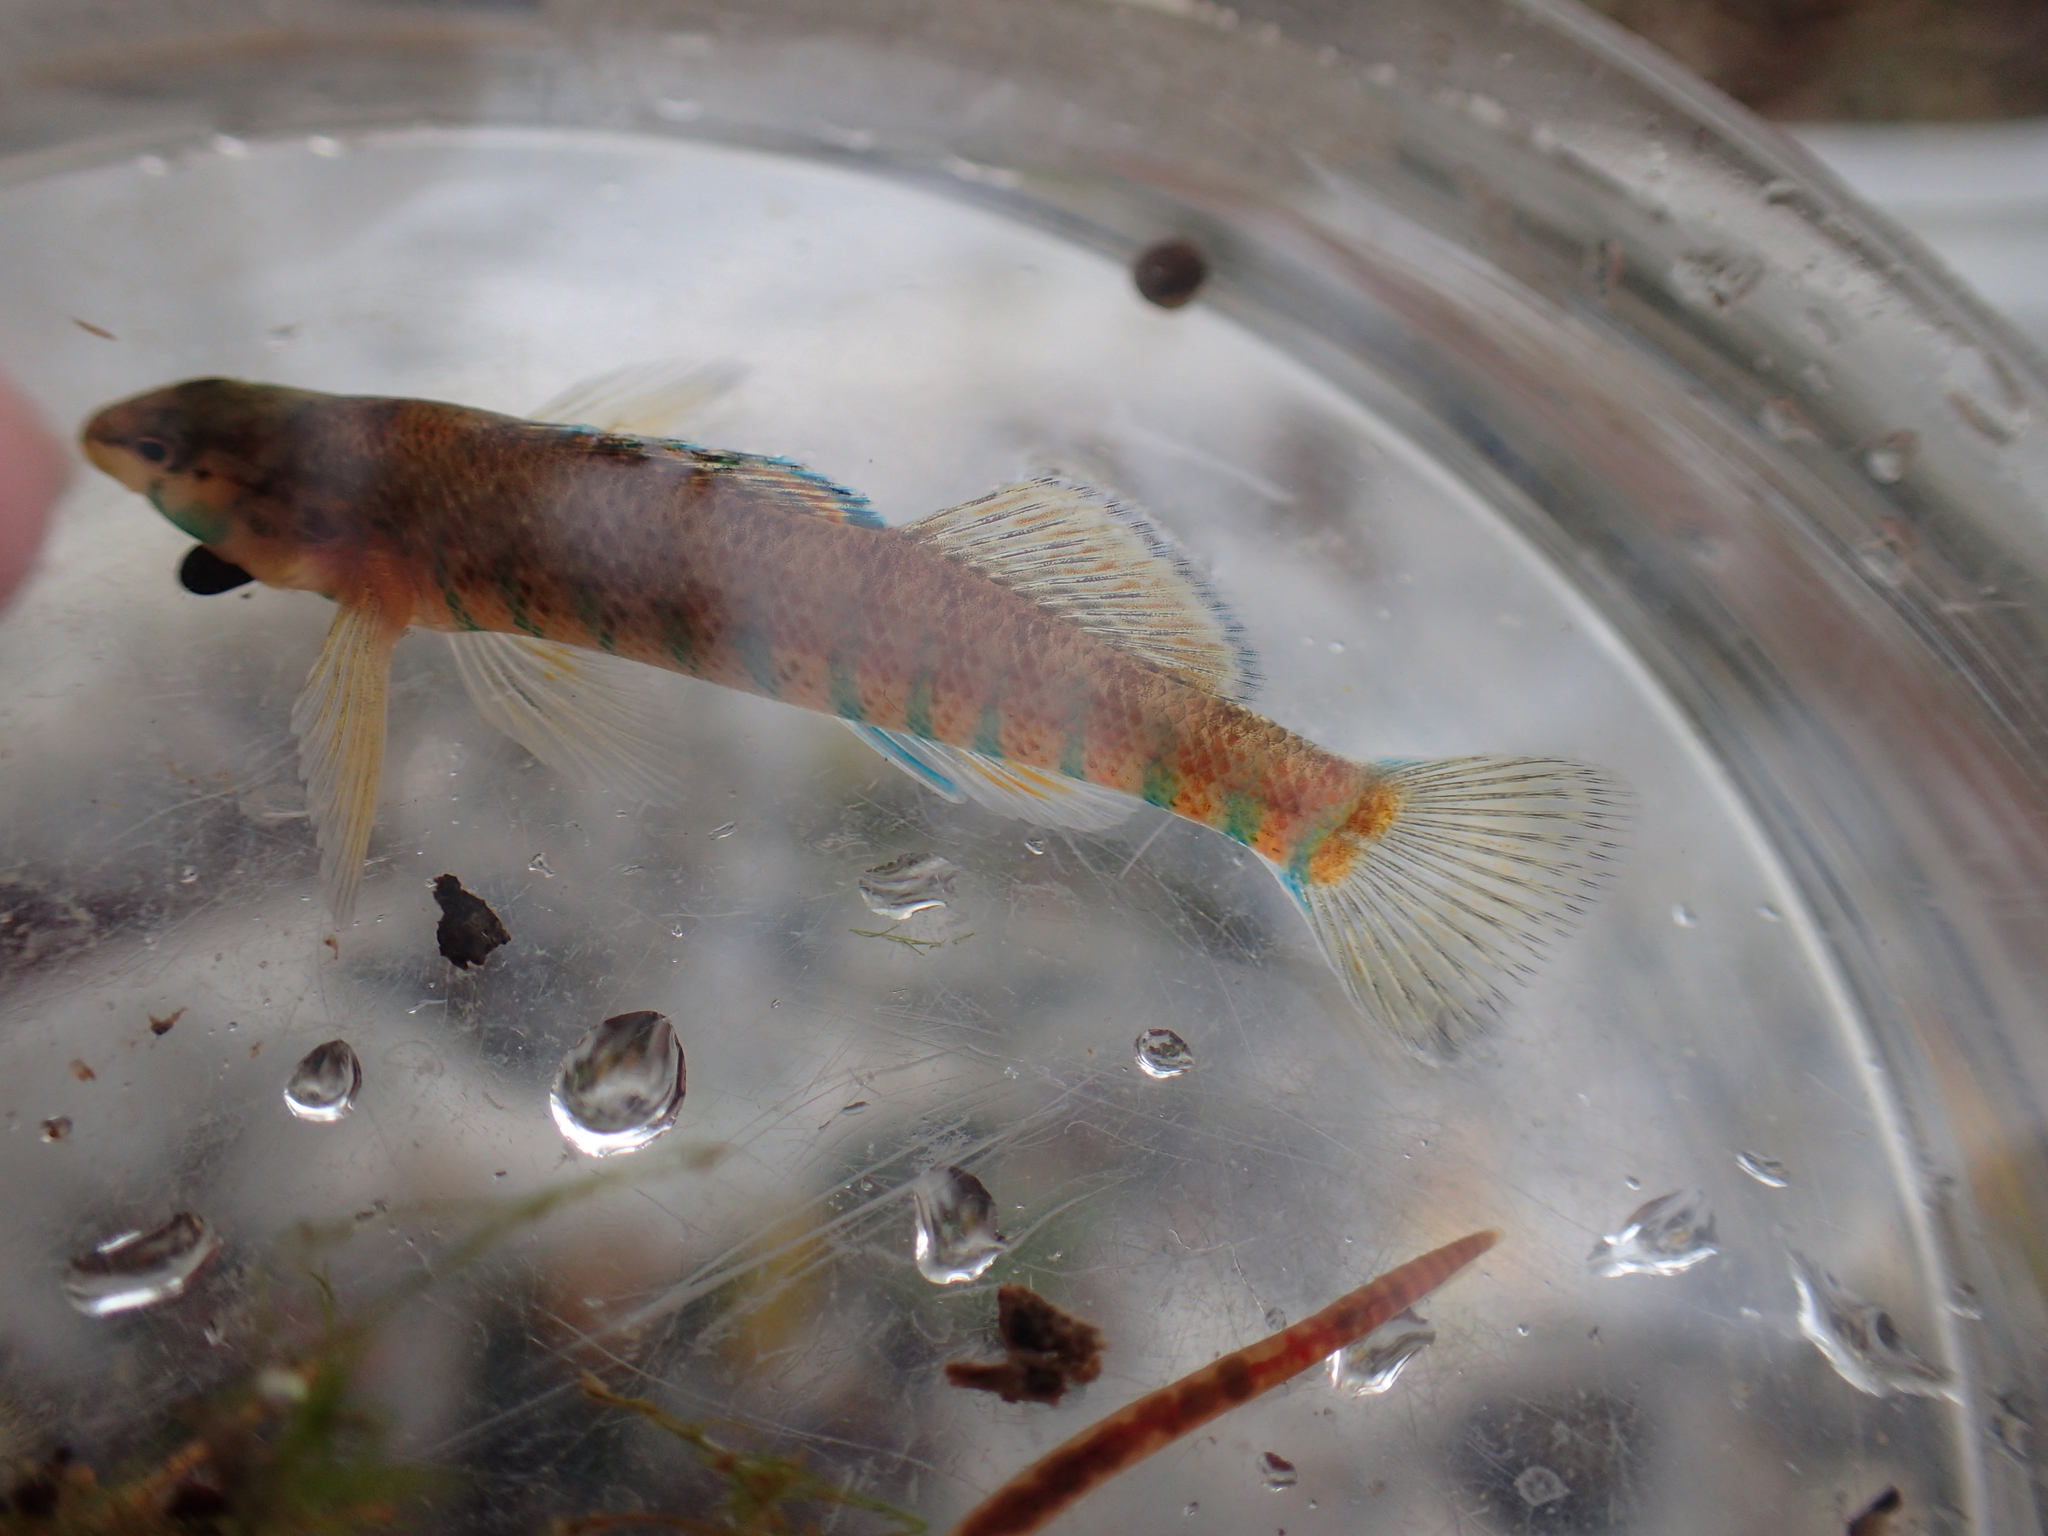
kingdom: Animalia
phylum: Chordata
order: Perciformes
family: Percidae
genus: Etheostoma
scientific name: Etheostoma caeruleum
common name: Rainbow darter
